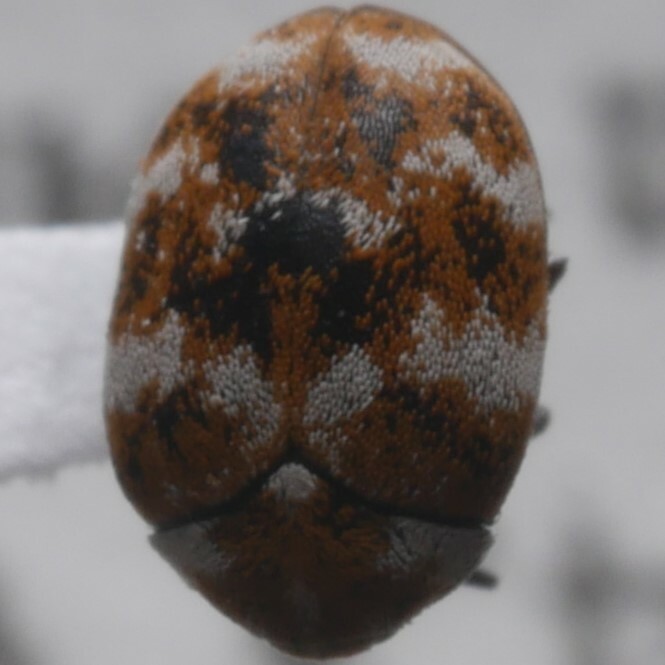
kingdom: Animalia
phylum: Arthropoda
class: Insecta
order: Coleoptera
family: Dermestidae
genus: Anthrenus
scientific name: Anthrenus verbasci
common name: Varied carpet beetle
